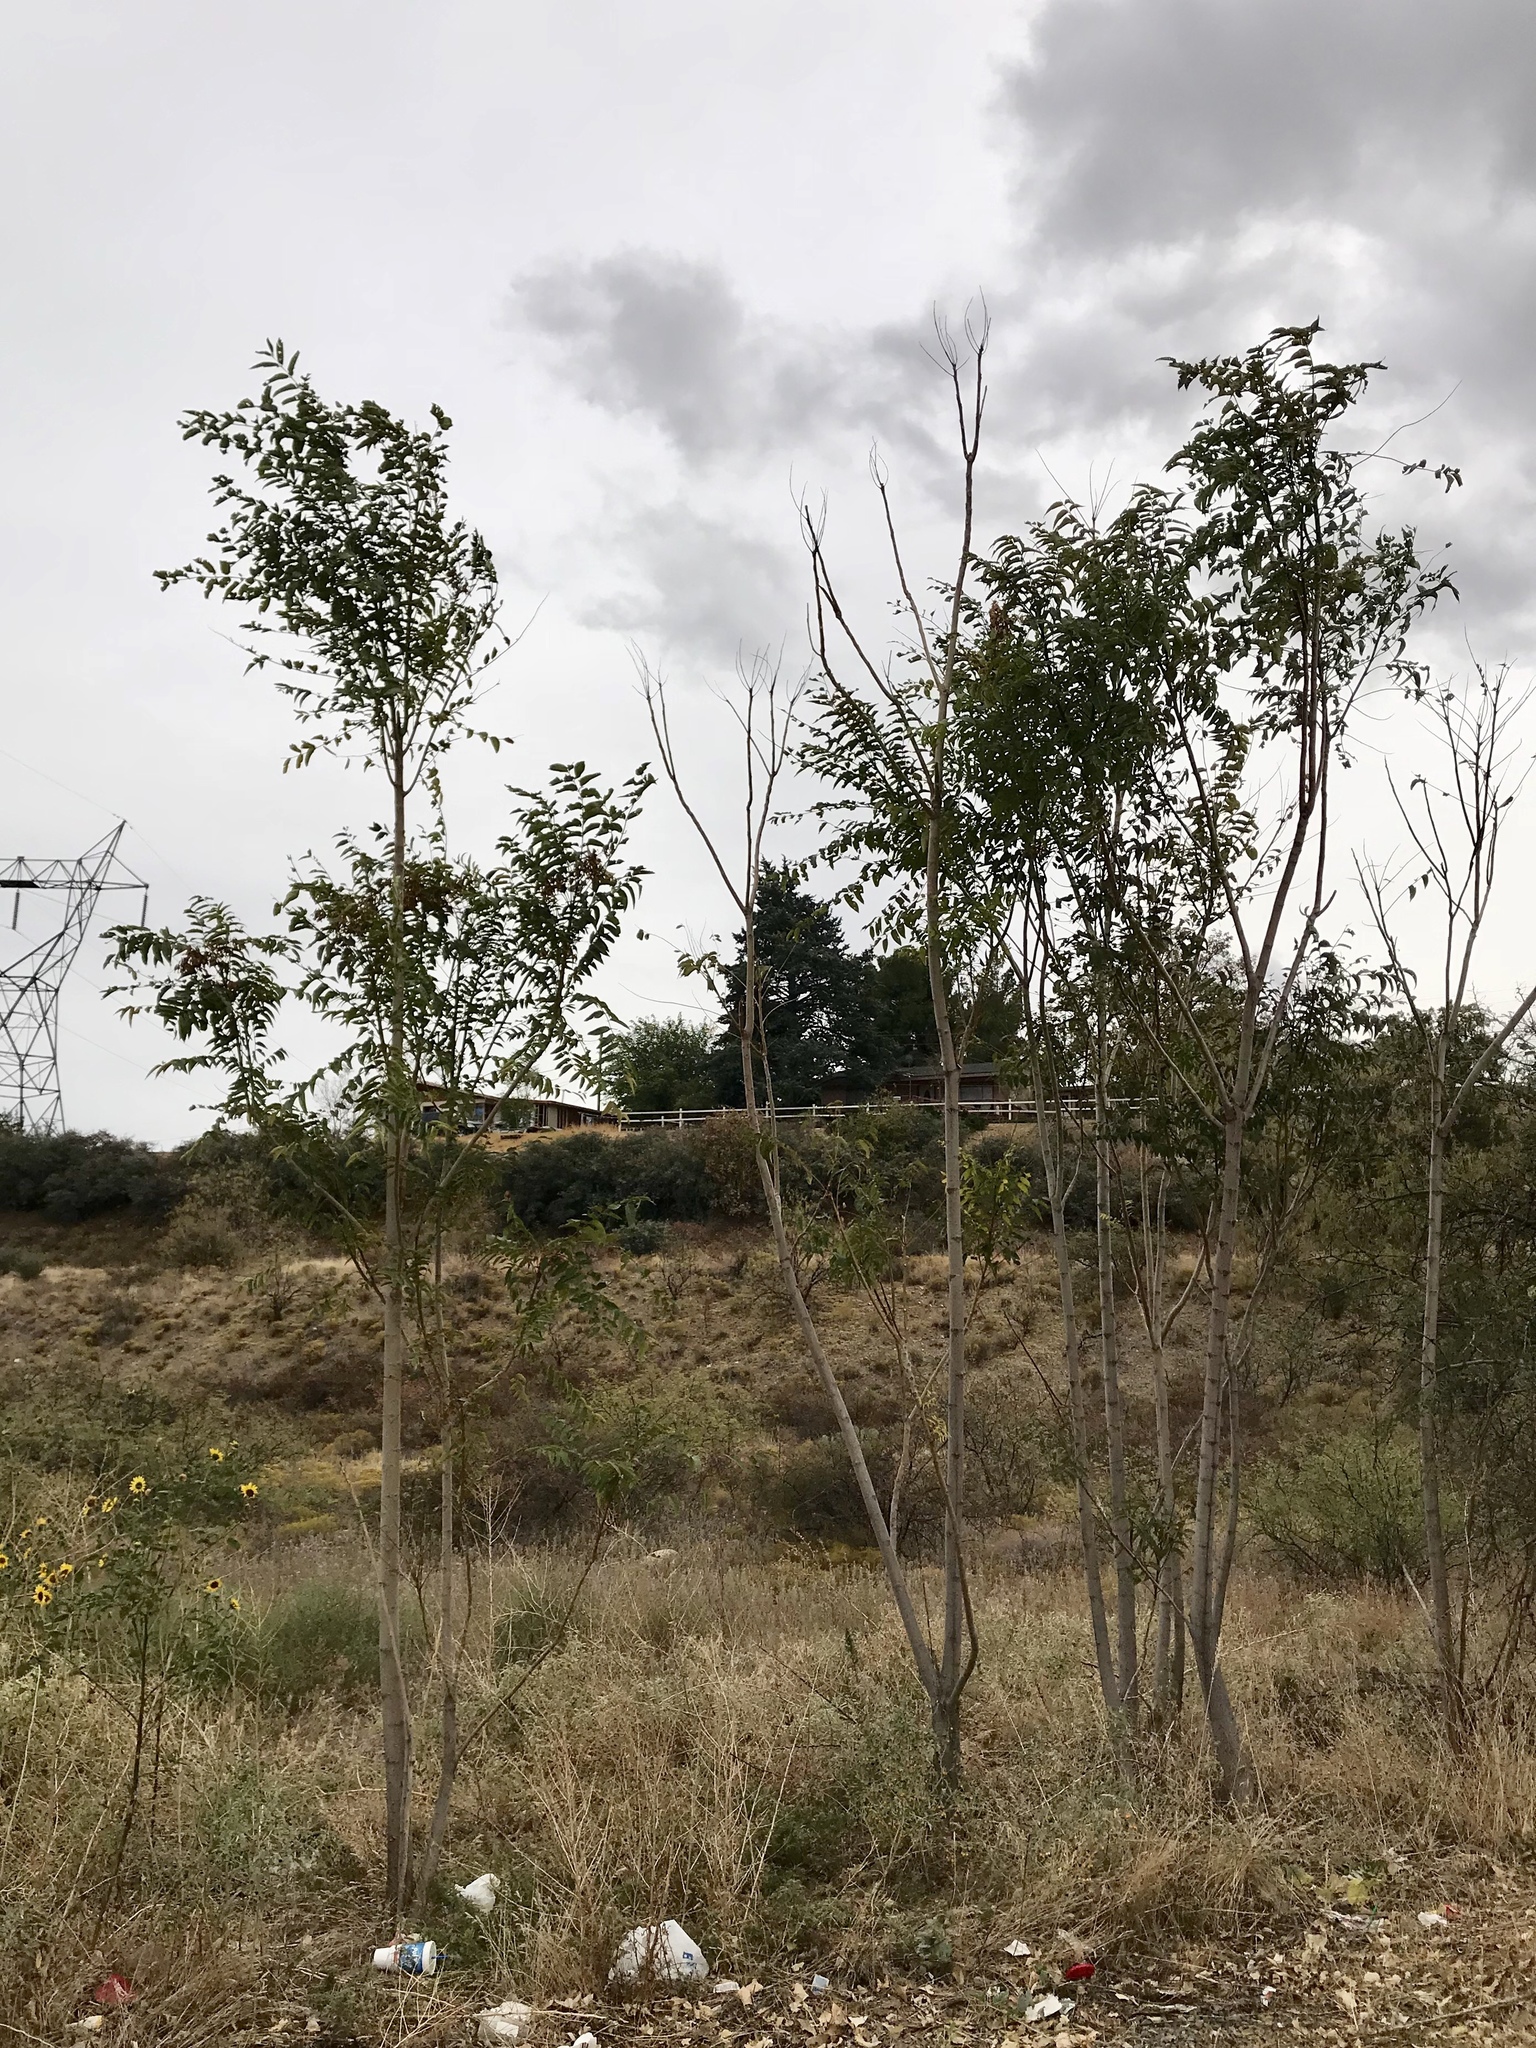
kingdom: Plantae
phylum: Tracheophyta
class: Magnoliopsida
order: Sapindales
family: Simaroubaceae
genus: Ailanthus
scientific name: Ailanthus altissima
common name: Tree-of-heaven
